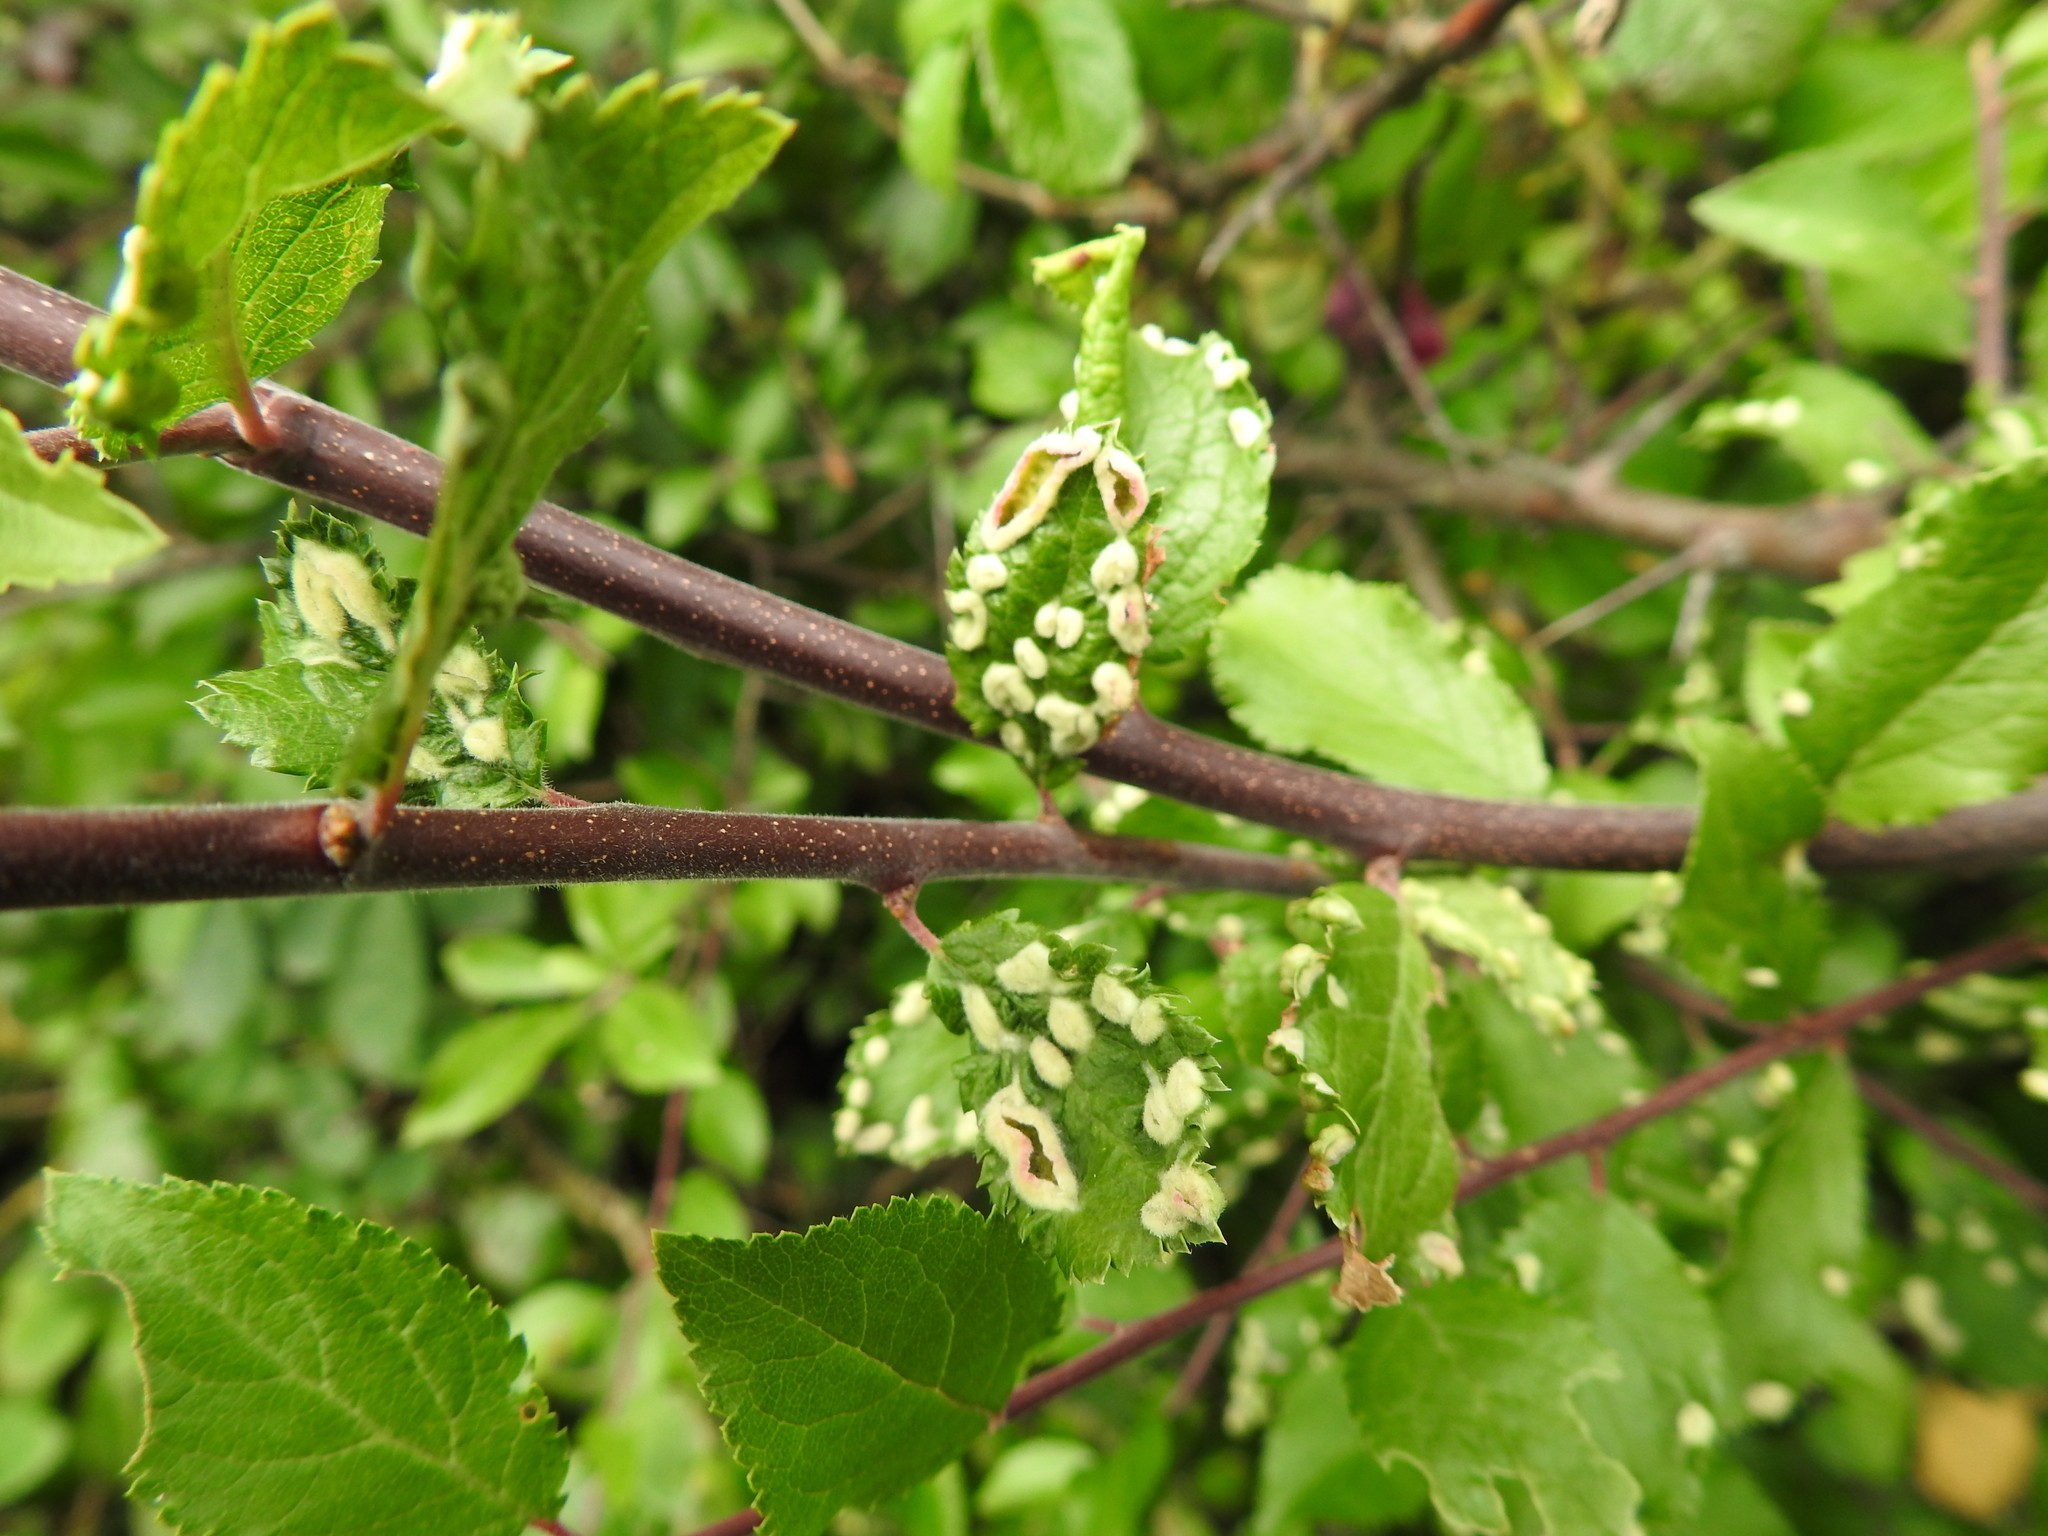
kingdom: Animalia
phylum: Arthropoda
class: Arachnida
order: Trombidiformes
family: Eriophyidae
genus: Eriophyes
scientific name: Eriophyes similis
